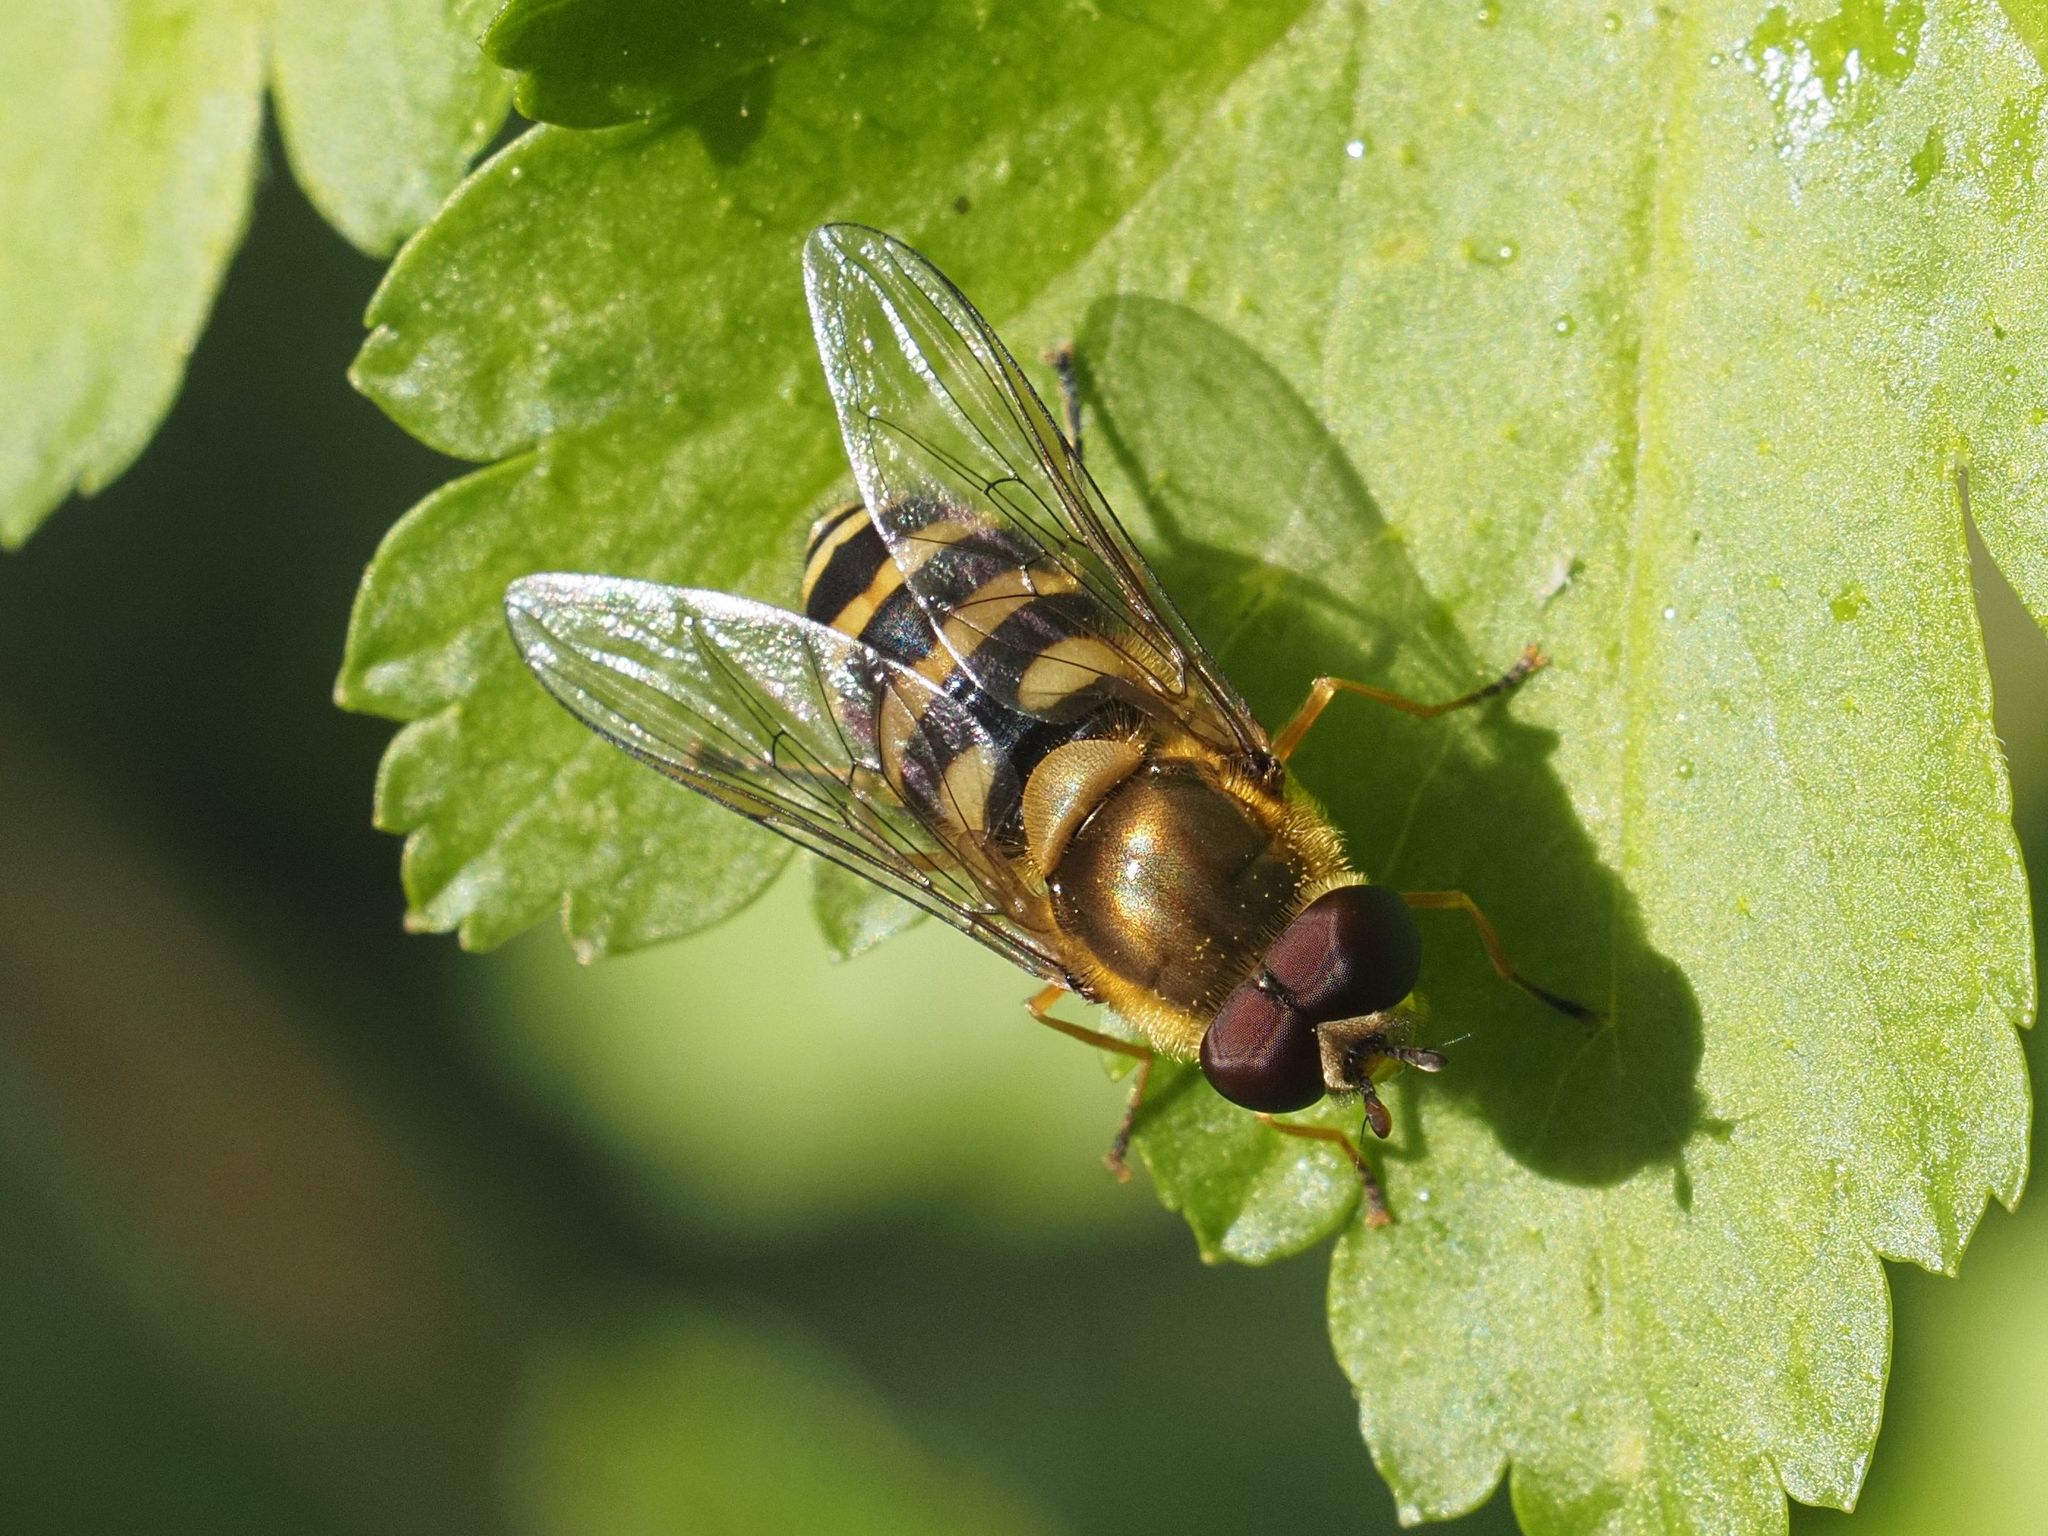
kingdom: Animalia
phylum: Arthropoda
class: Insecta
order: Diptera
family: Syrphidae
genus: Syrphus
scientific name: Syrphus
